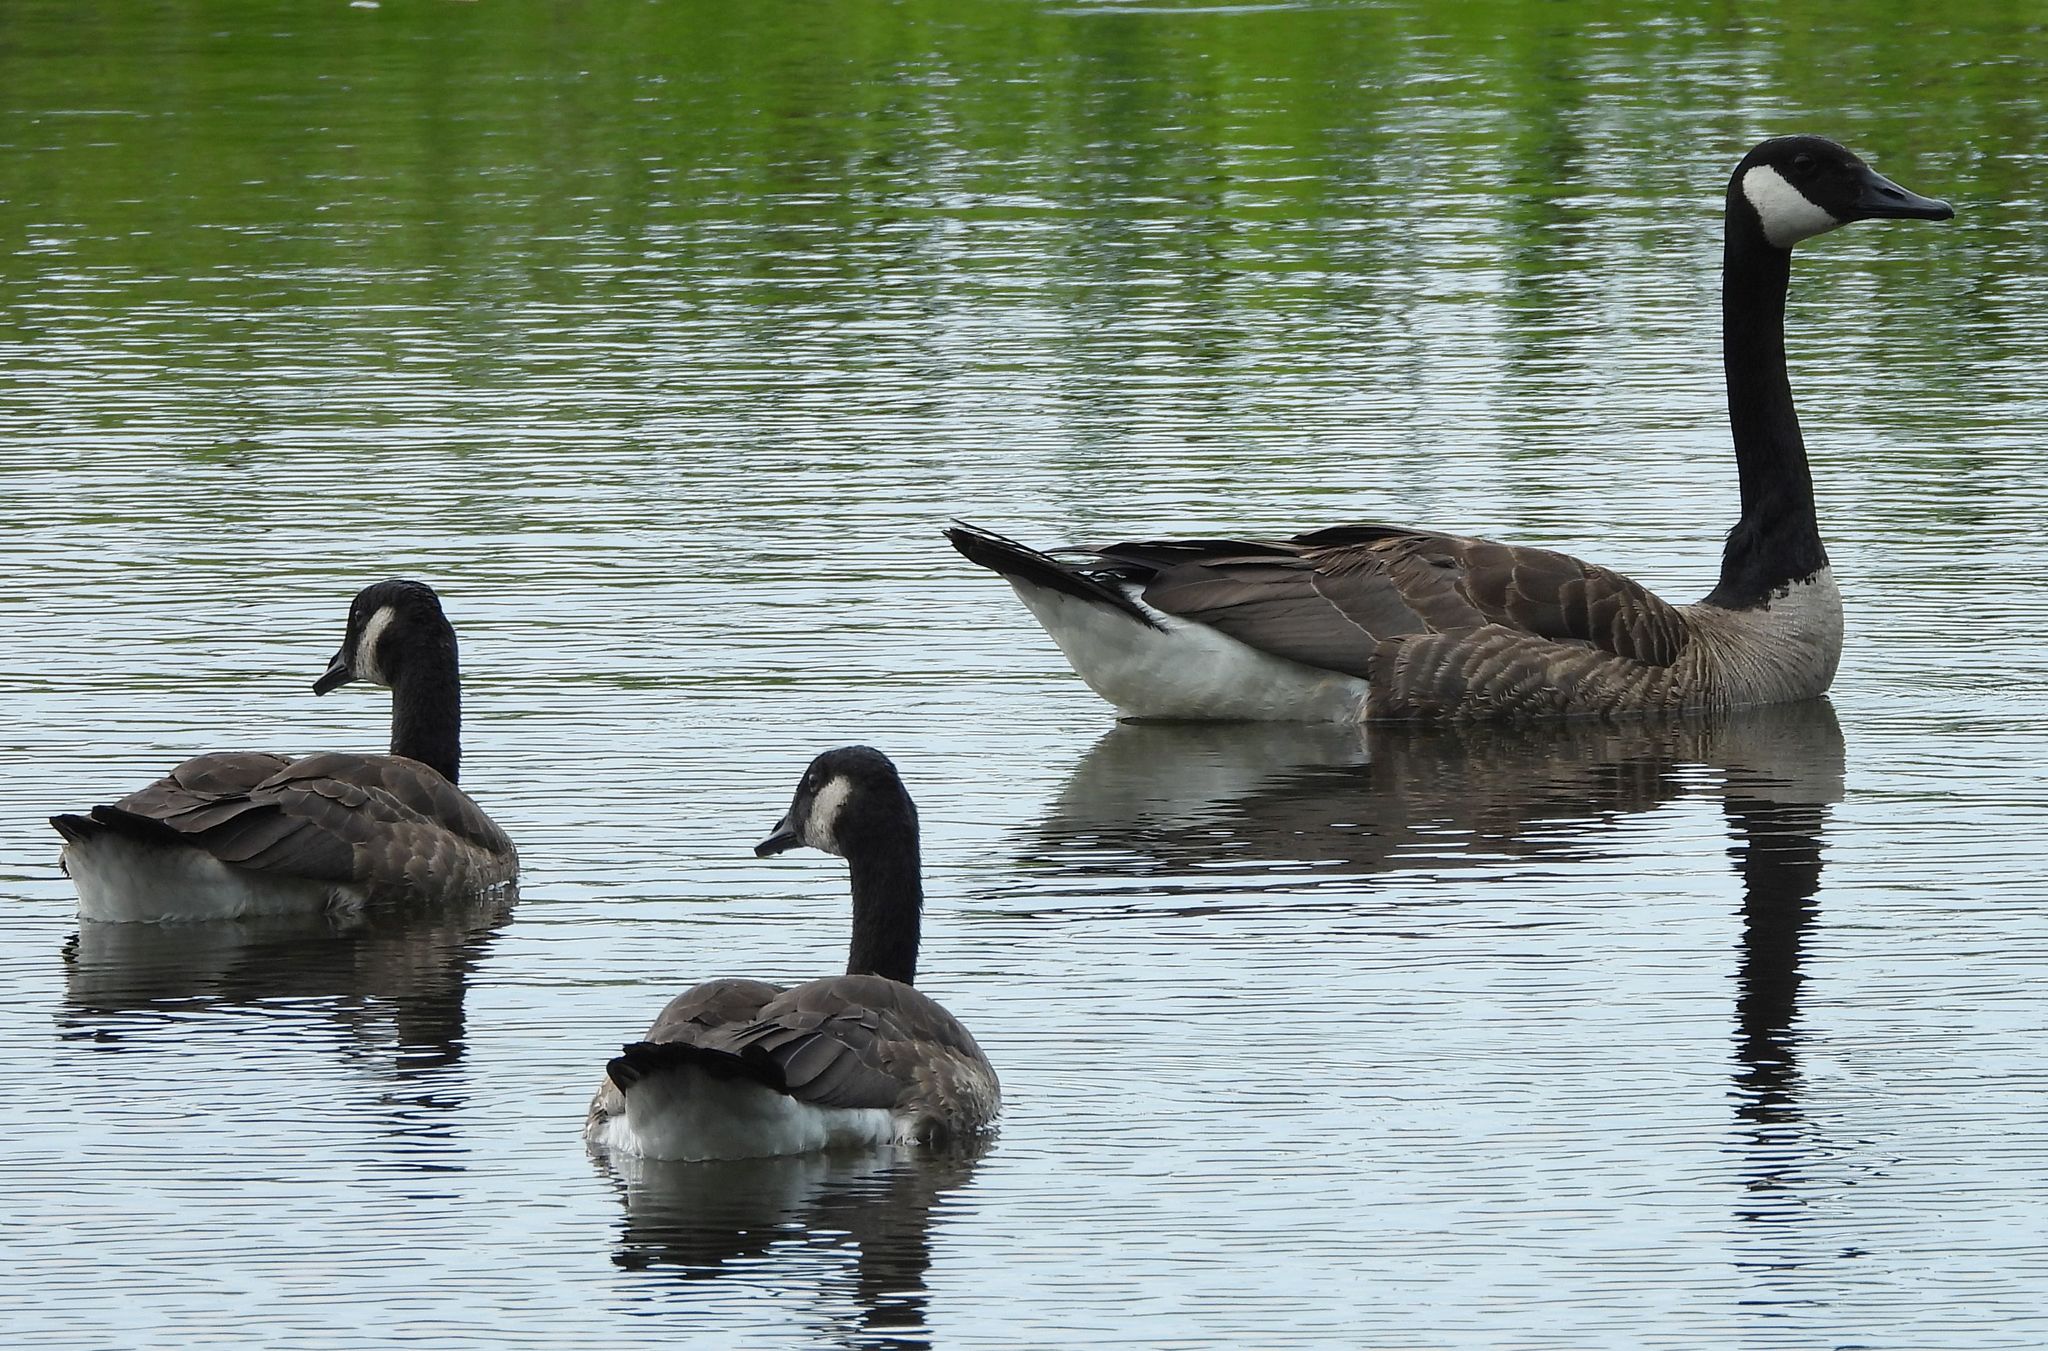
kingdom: Animalia
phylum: Chordata
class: Aves
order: Anseriformes
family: Anatidae
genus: Branta
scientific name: Branta canadensis
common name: Canada goose
